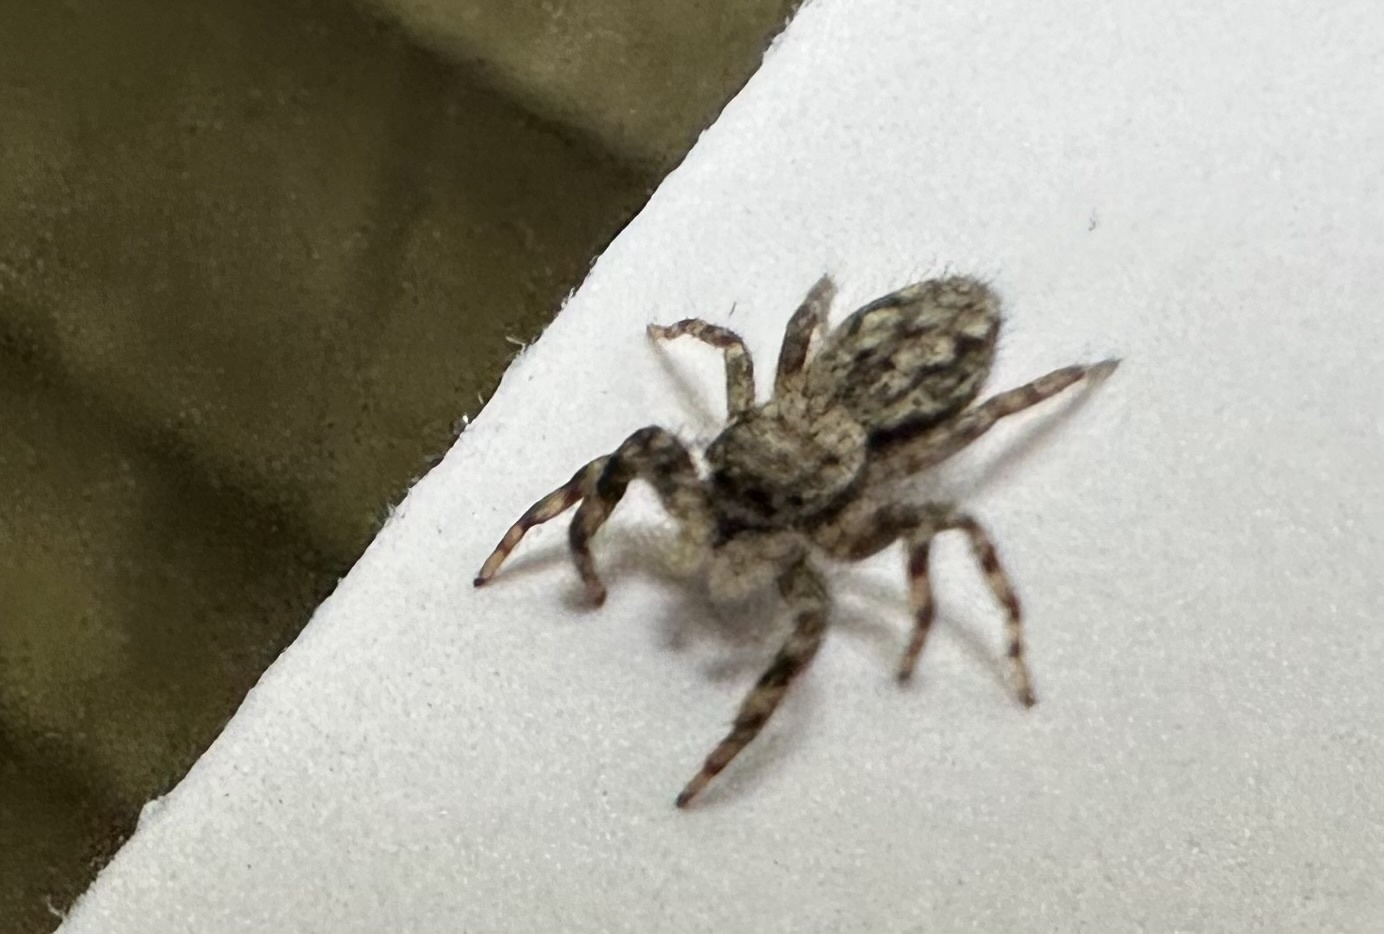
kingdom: Animalia
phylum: Arthropoda
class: Arachnida
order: Araneae
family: Salticidae
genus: Platycryptus
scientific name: Platycryptus undatus
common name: Tan jumping spider
